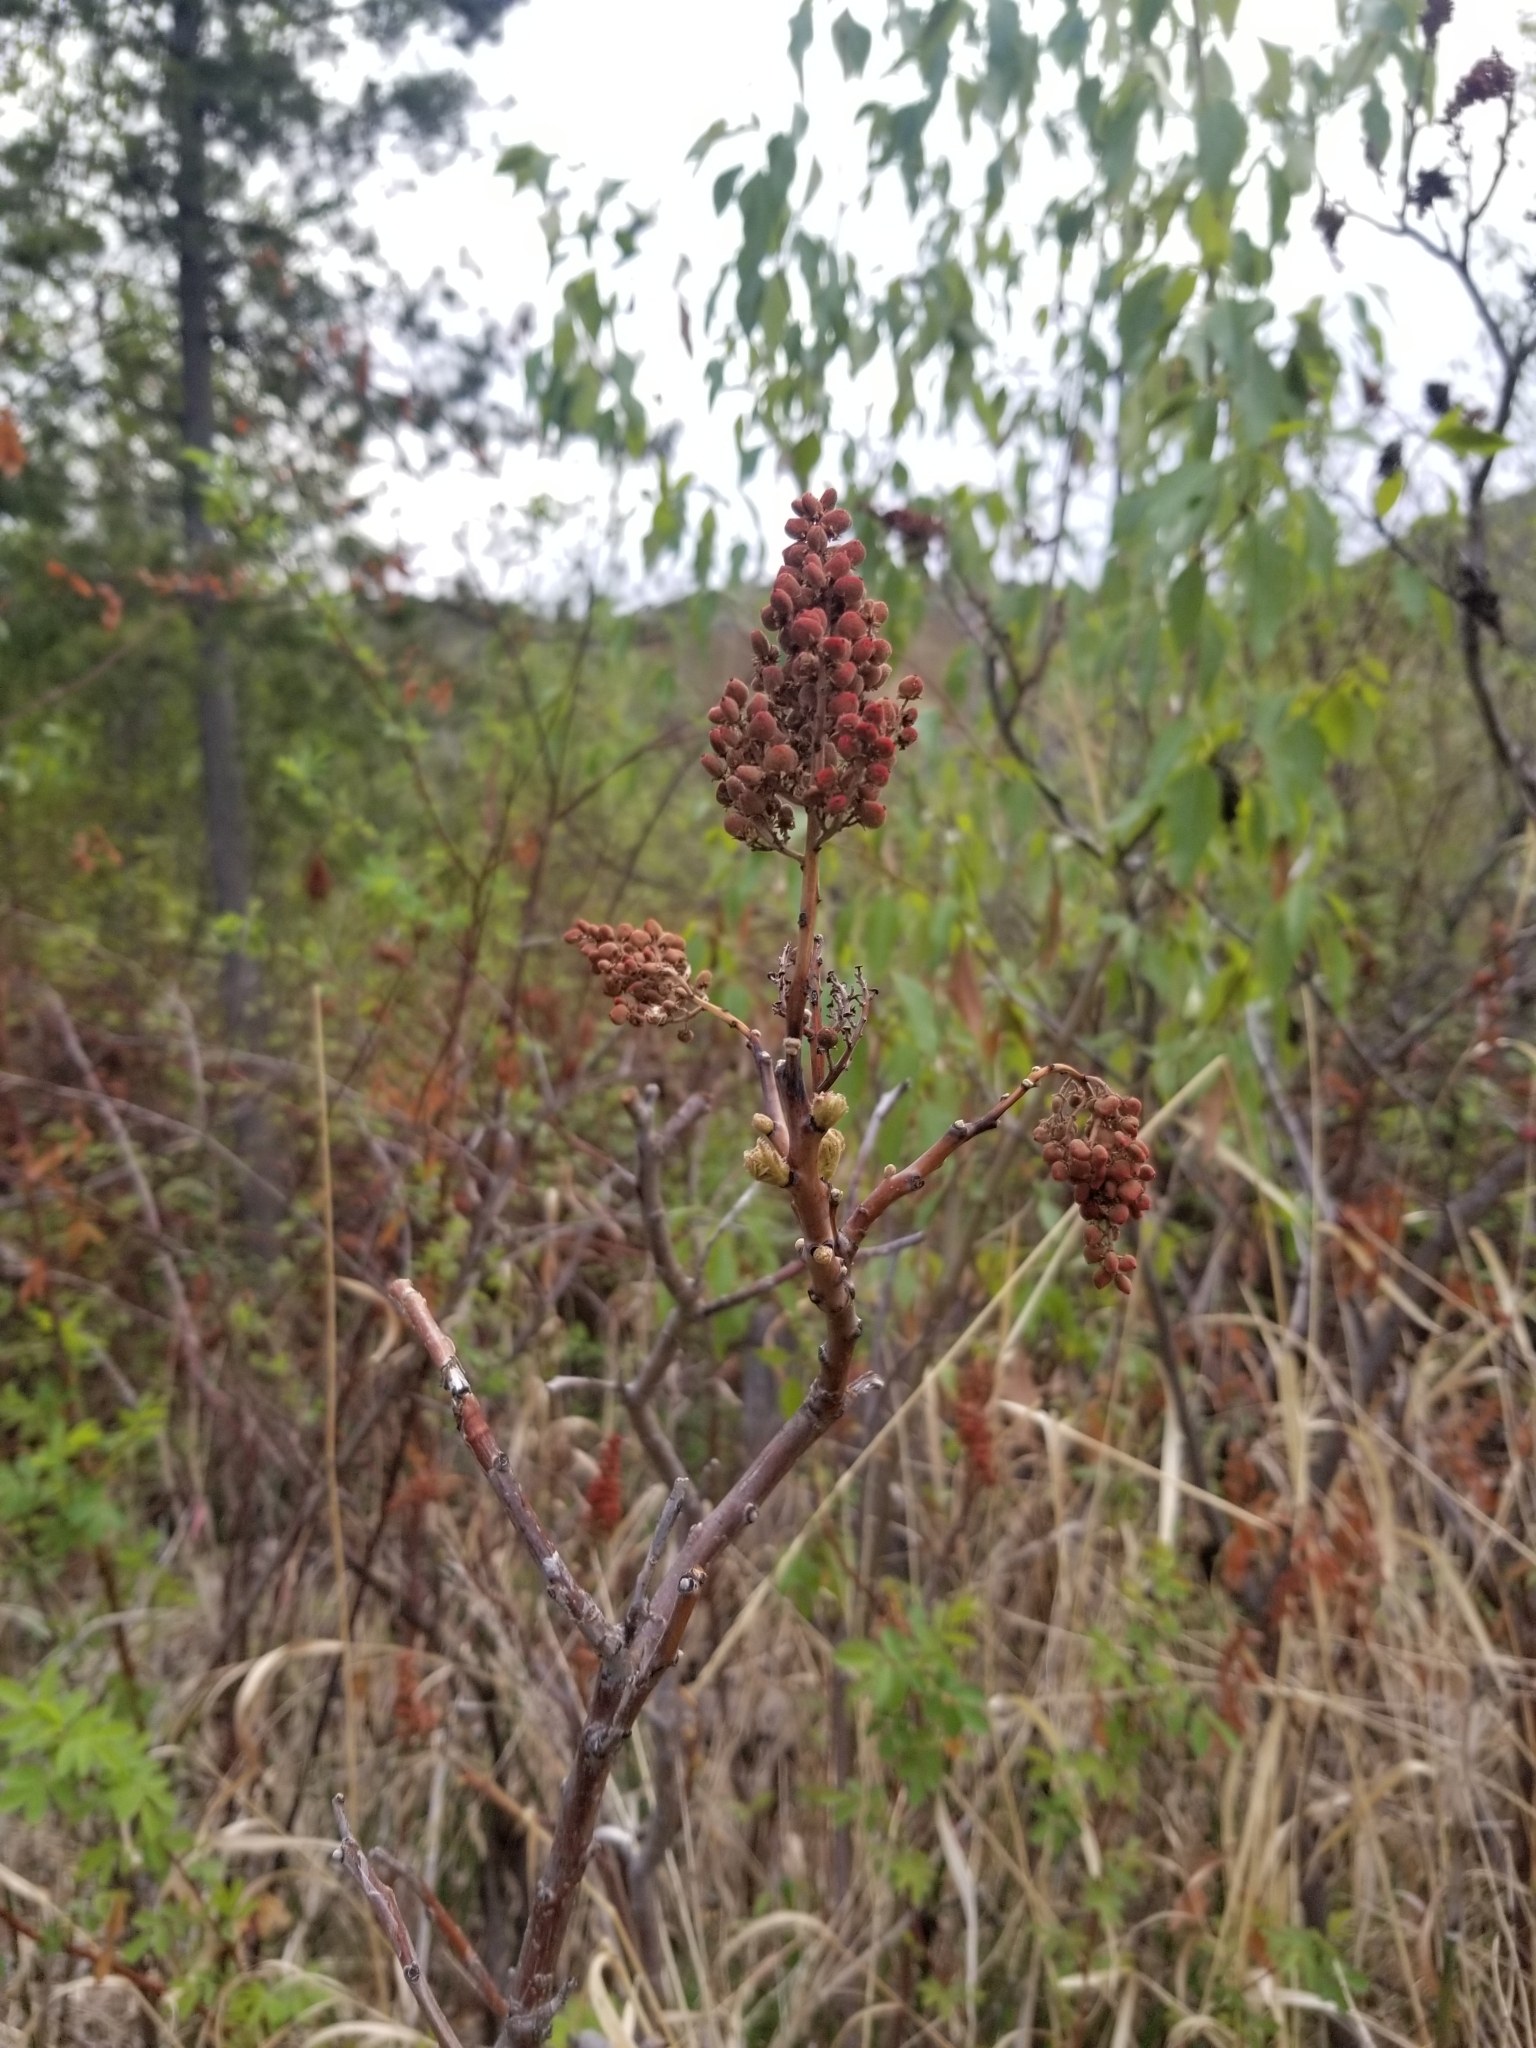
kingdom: Plantae
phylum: Tracheophyta
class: Magnoliopsida
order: Sapindales
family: Anacardiaceae
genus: Rhus
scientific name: Rhus glabra
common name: Scarlet sumac
